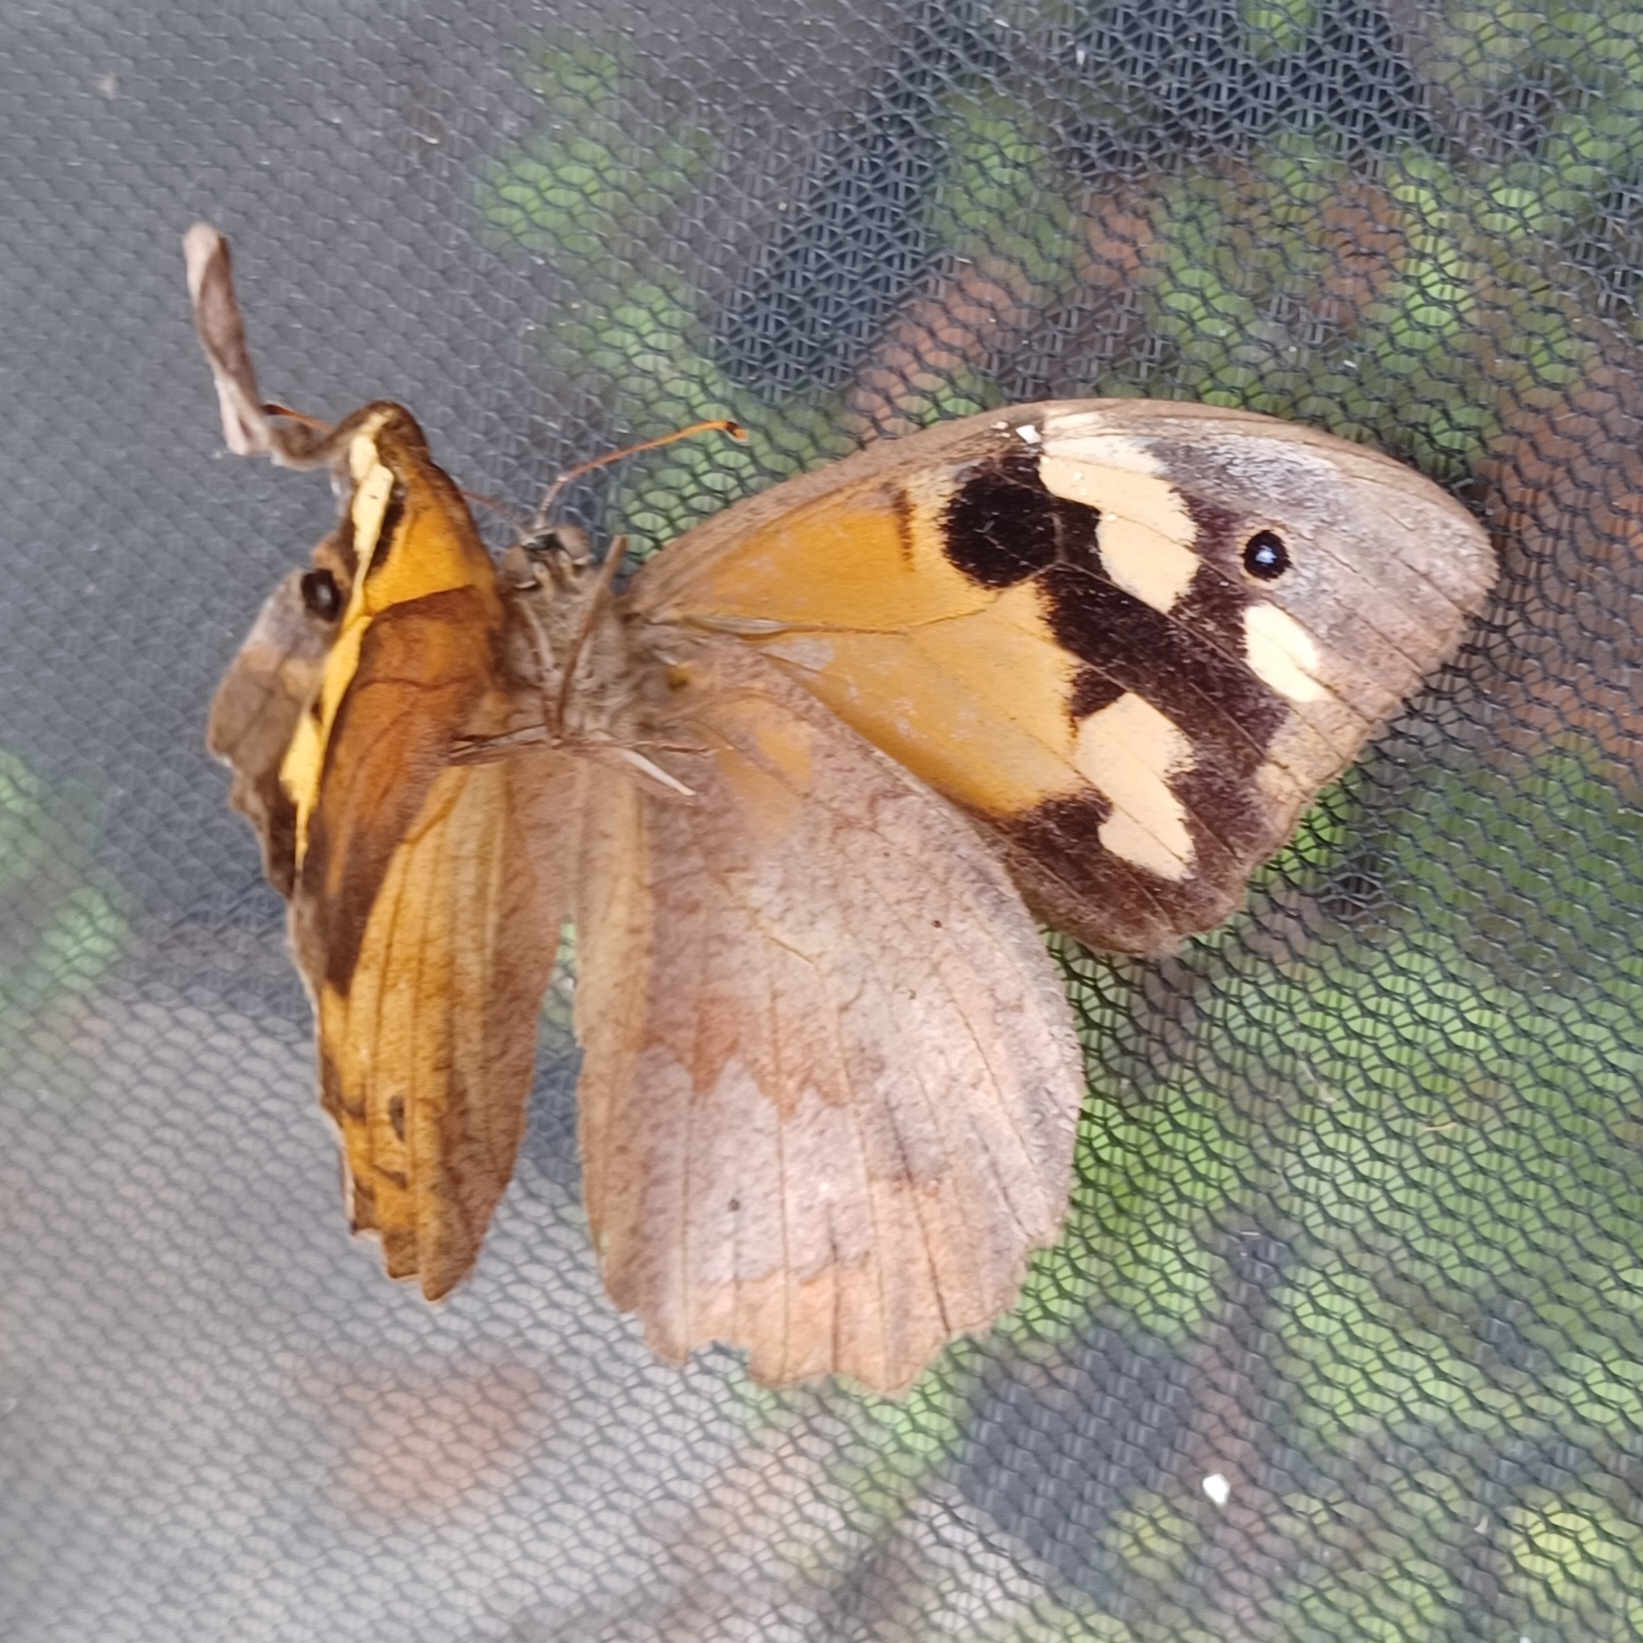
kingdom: Animalia
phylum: Arthropoda
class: Insecta
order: Lepidoptera
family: Nymphalidae
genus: Heteronympha
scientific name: Heteronympha merope
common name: Common brown
